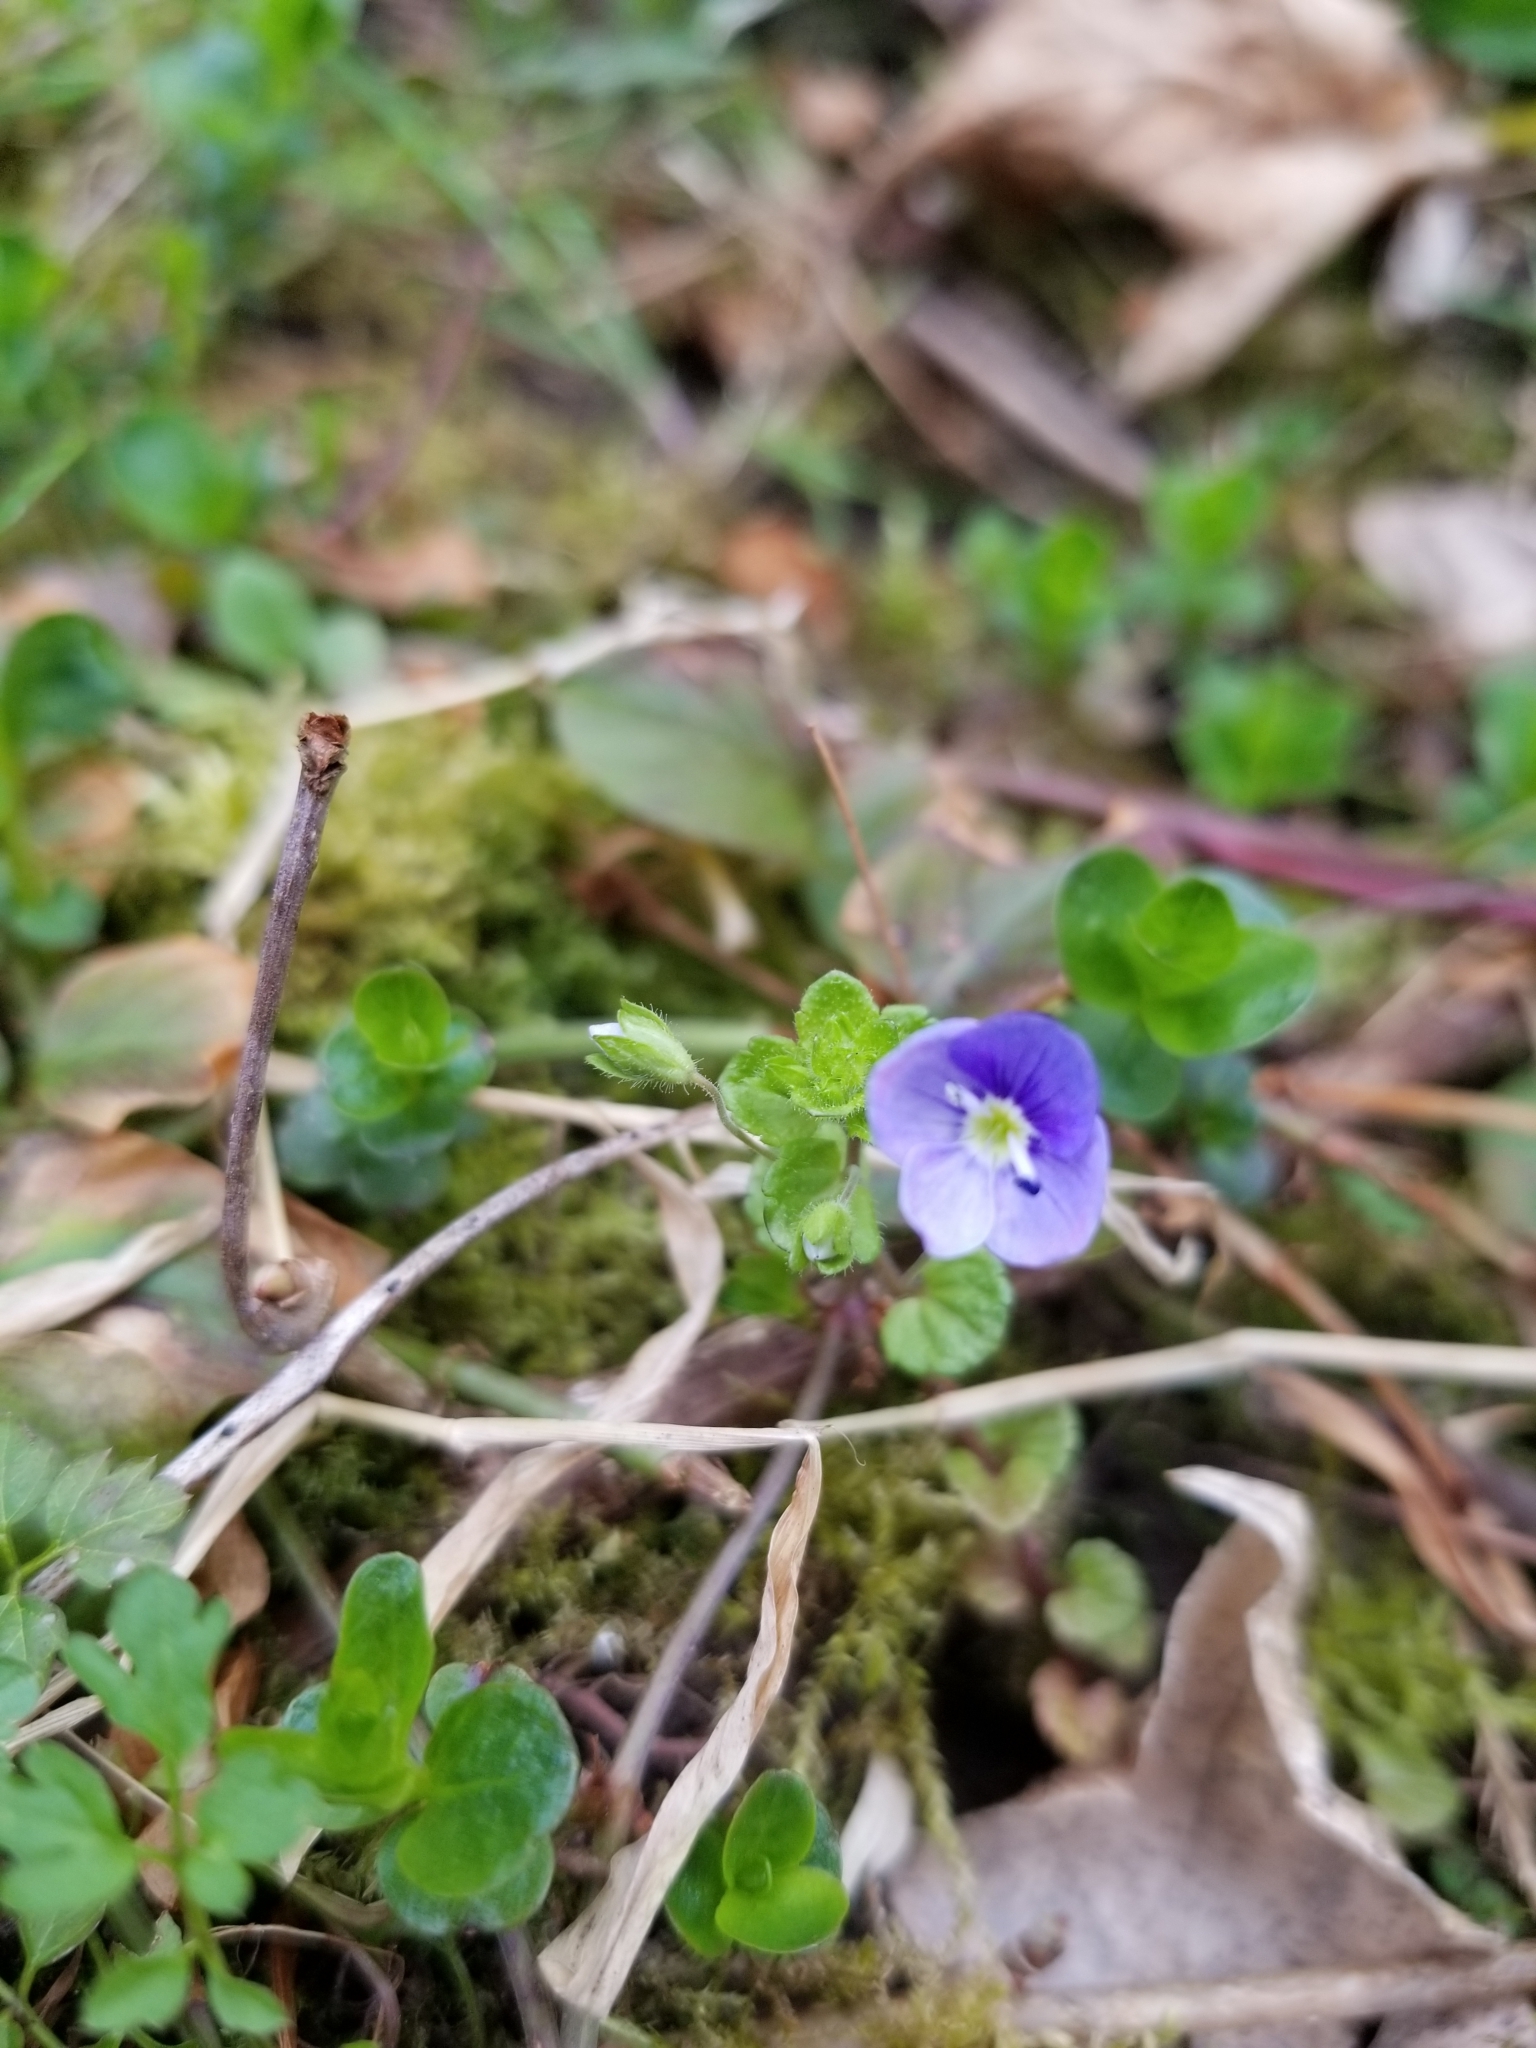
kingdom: Plantae
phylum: Tracheophyta
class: Magnoliopsida
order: Lamiales
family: Plantaginaceae
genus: Veronica
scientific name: Veronica filiformis
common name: Slender speedwell
